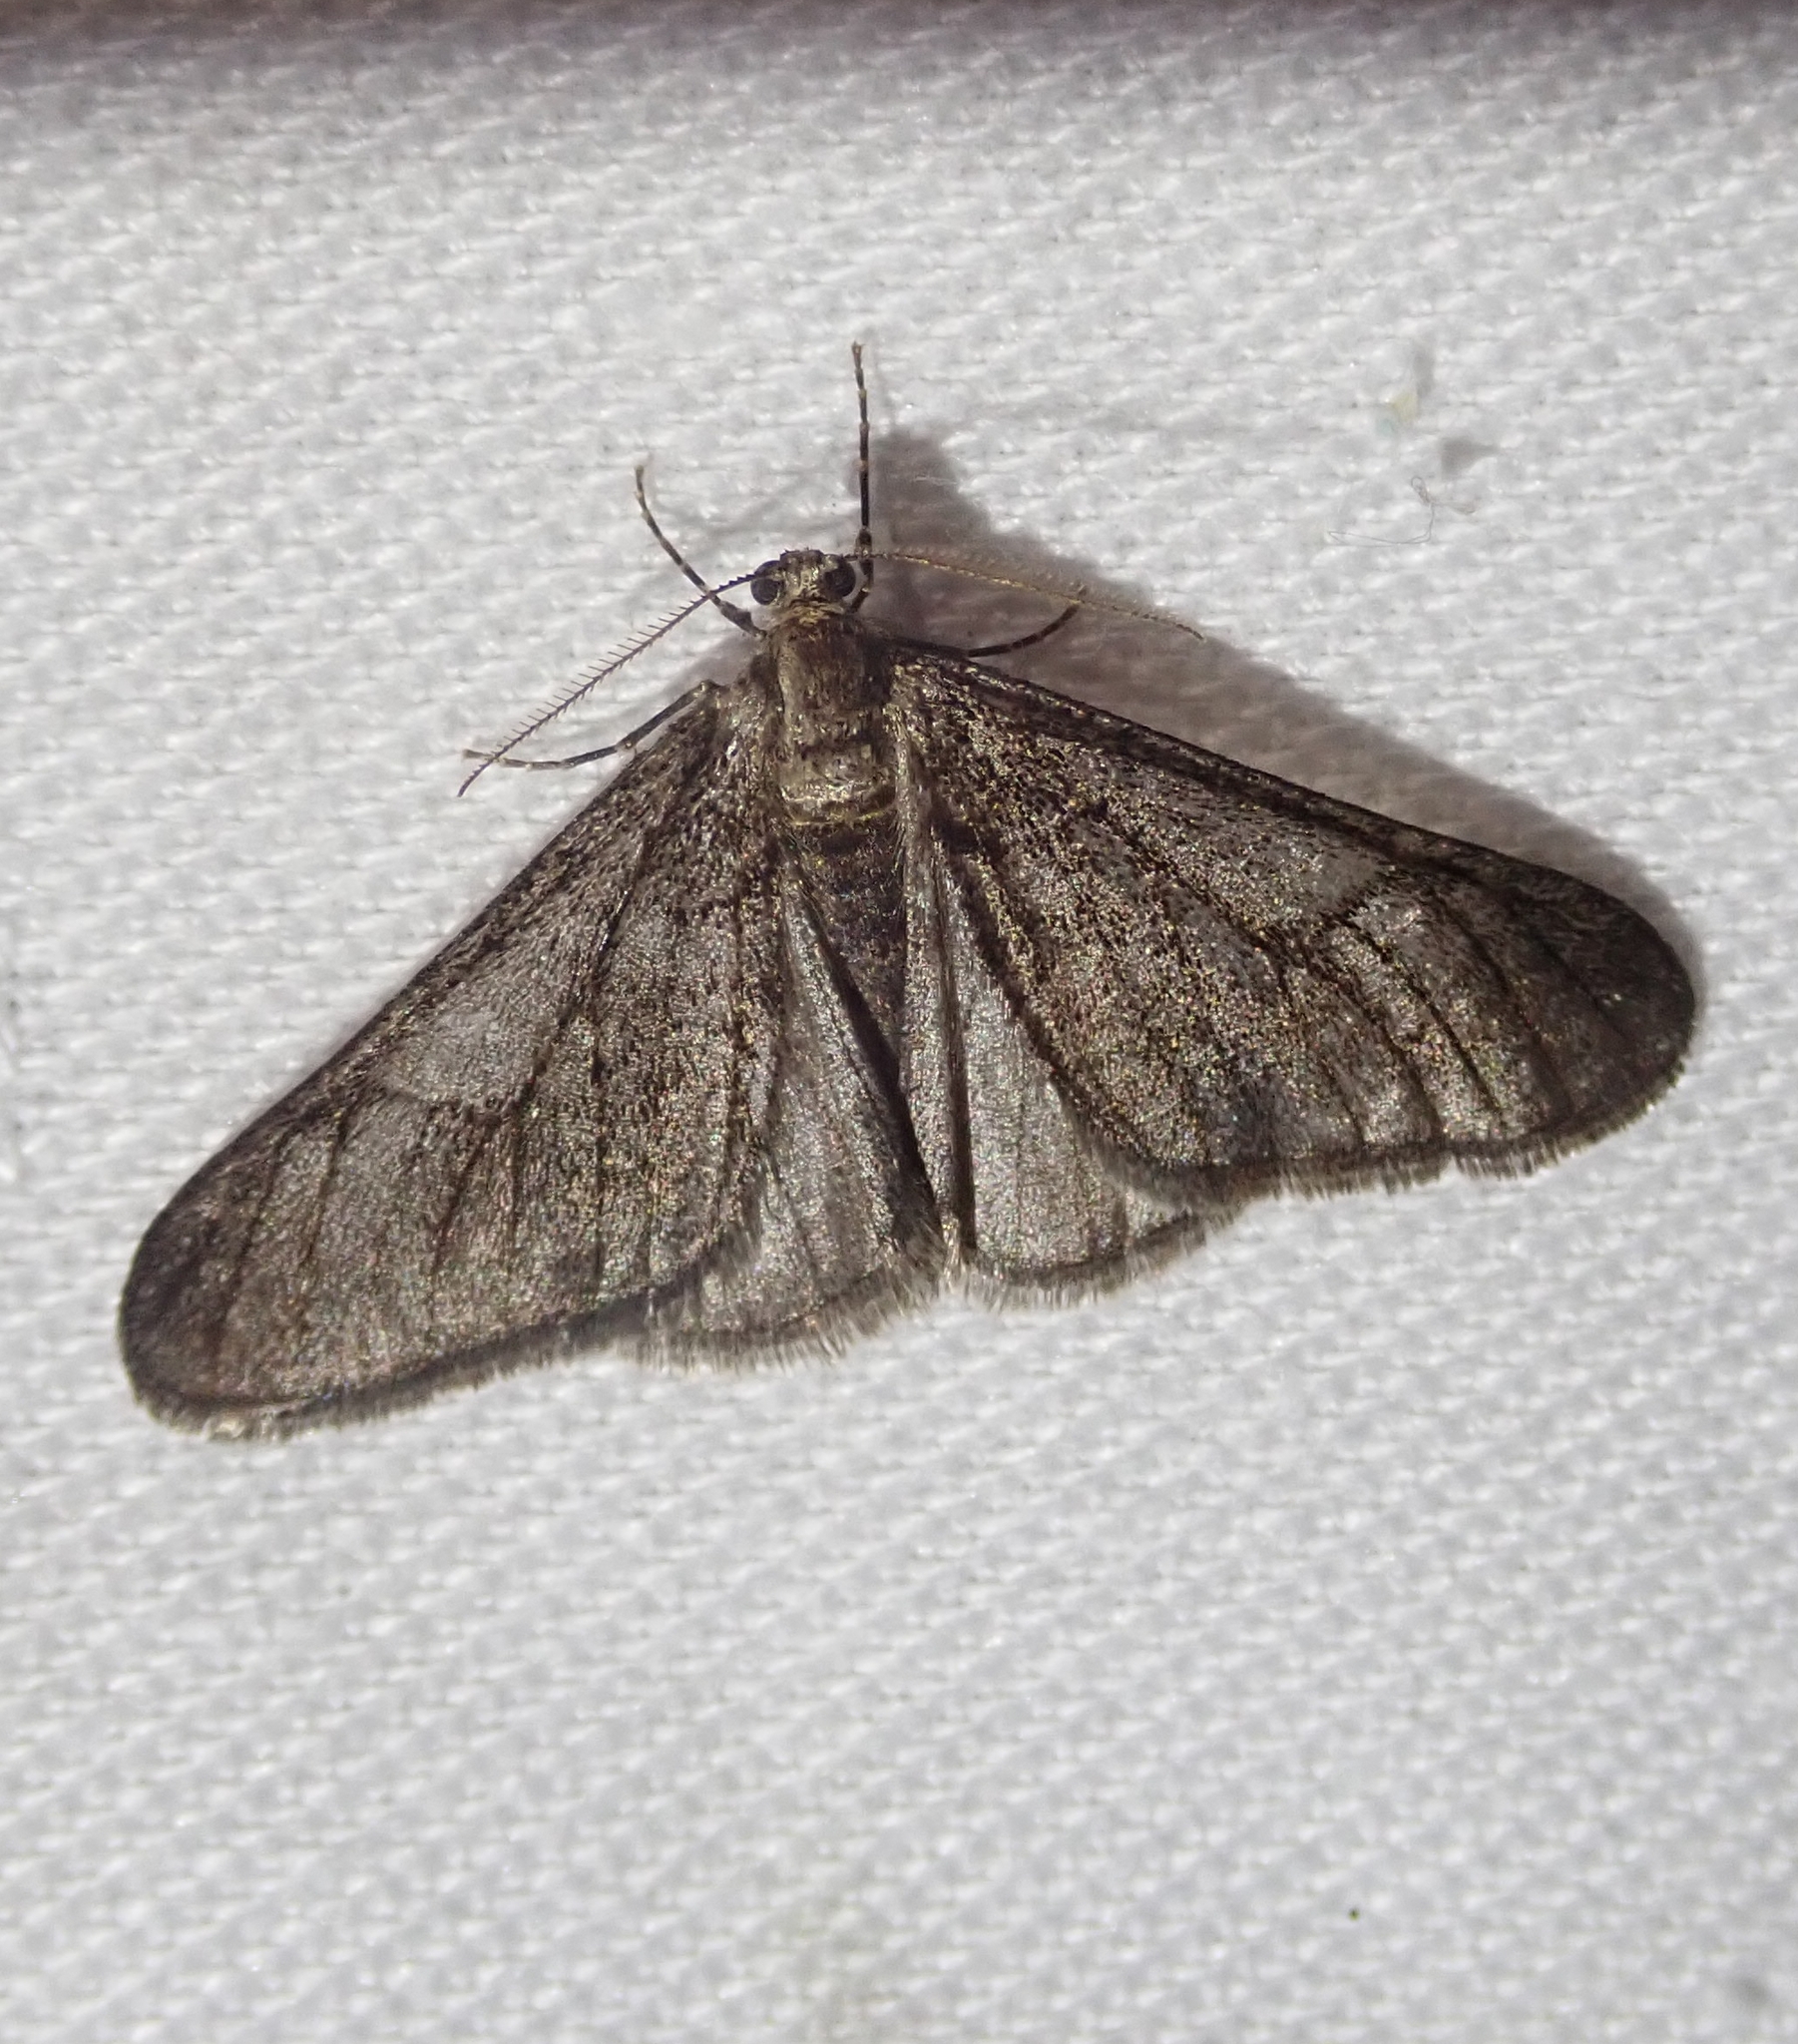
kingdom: Animalia
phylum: Arthropoda
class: Insecta
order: Lepidoptera
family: Geometridae
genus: Agriopis
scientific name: Agriopis leucophaearia
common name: Spring usher
